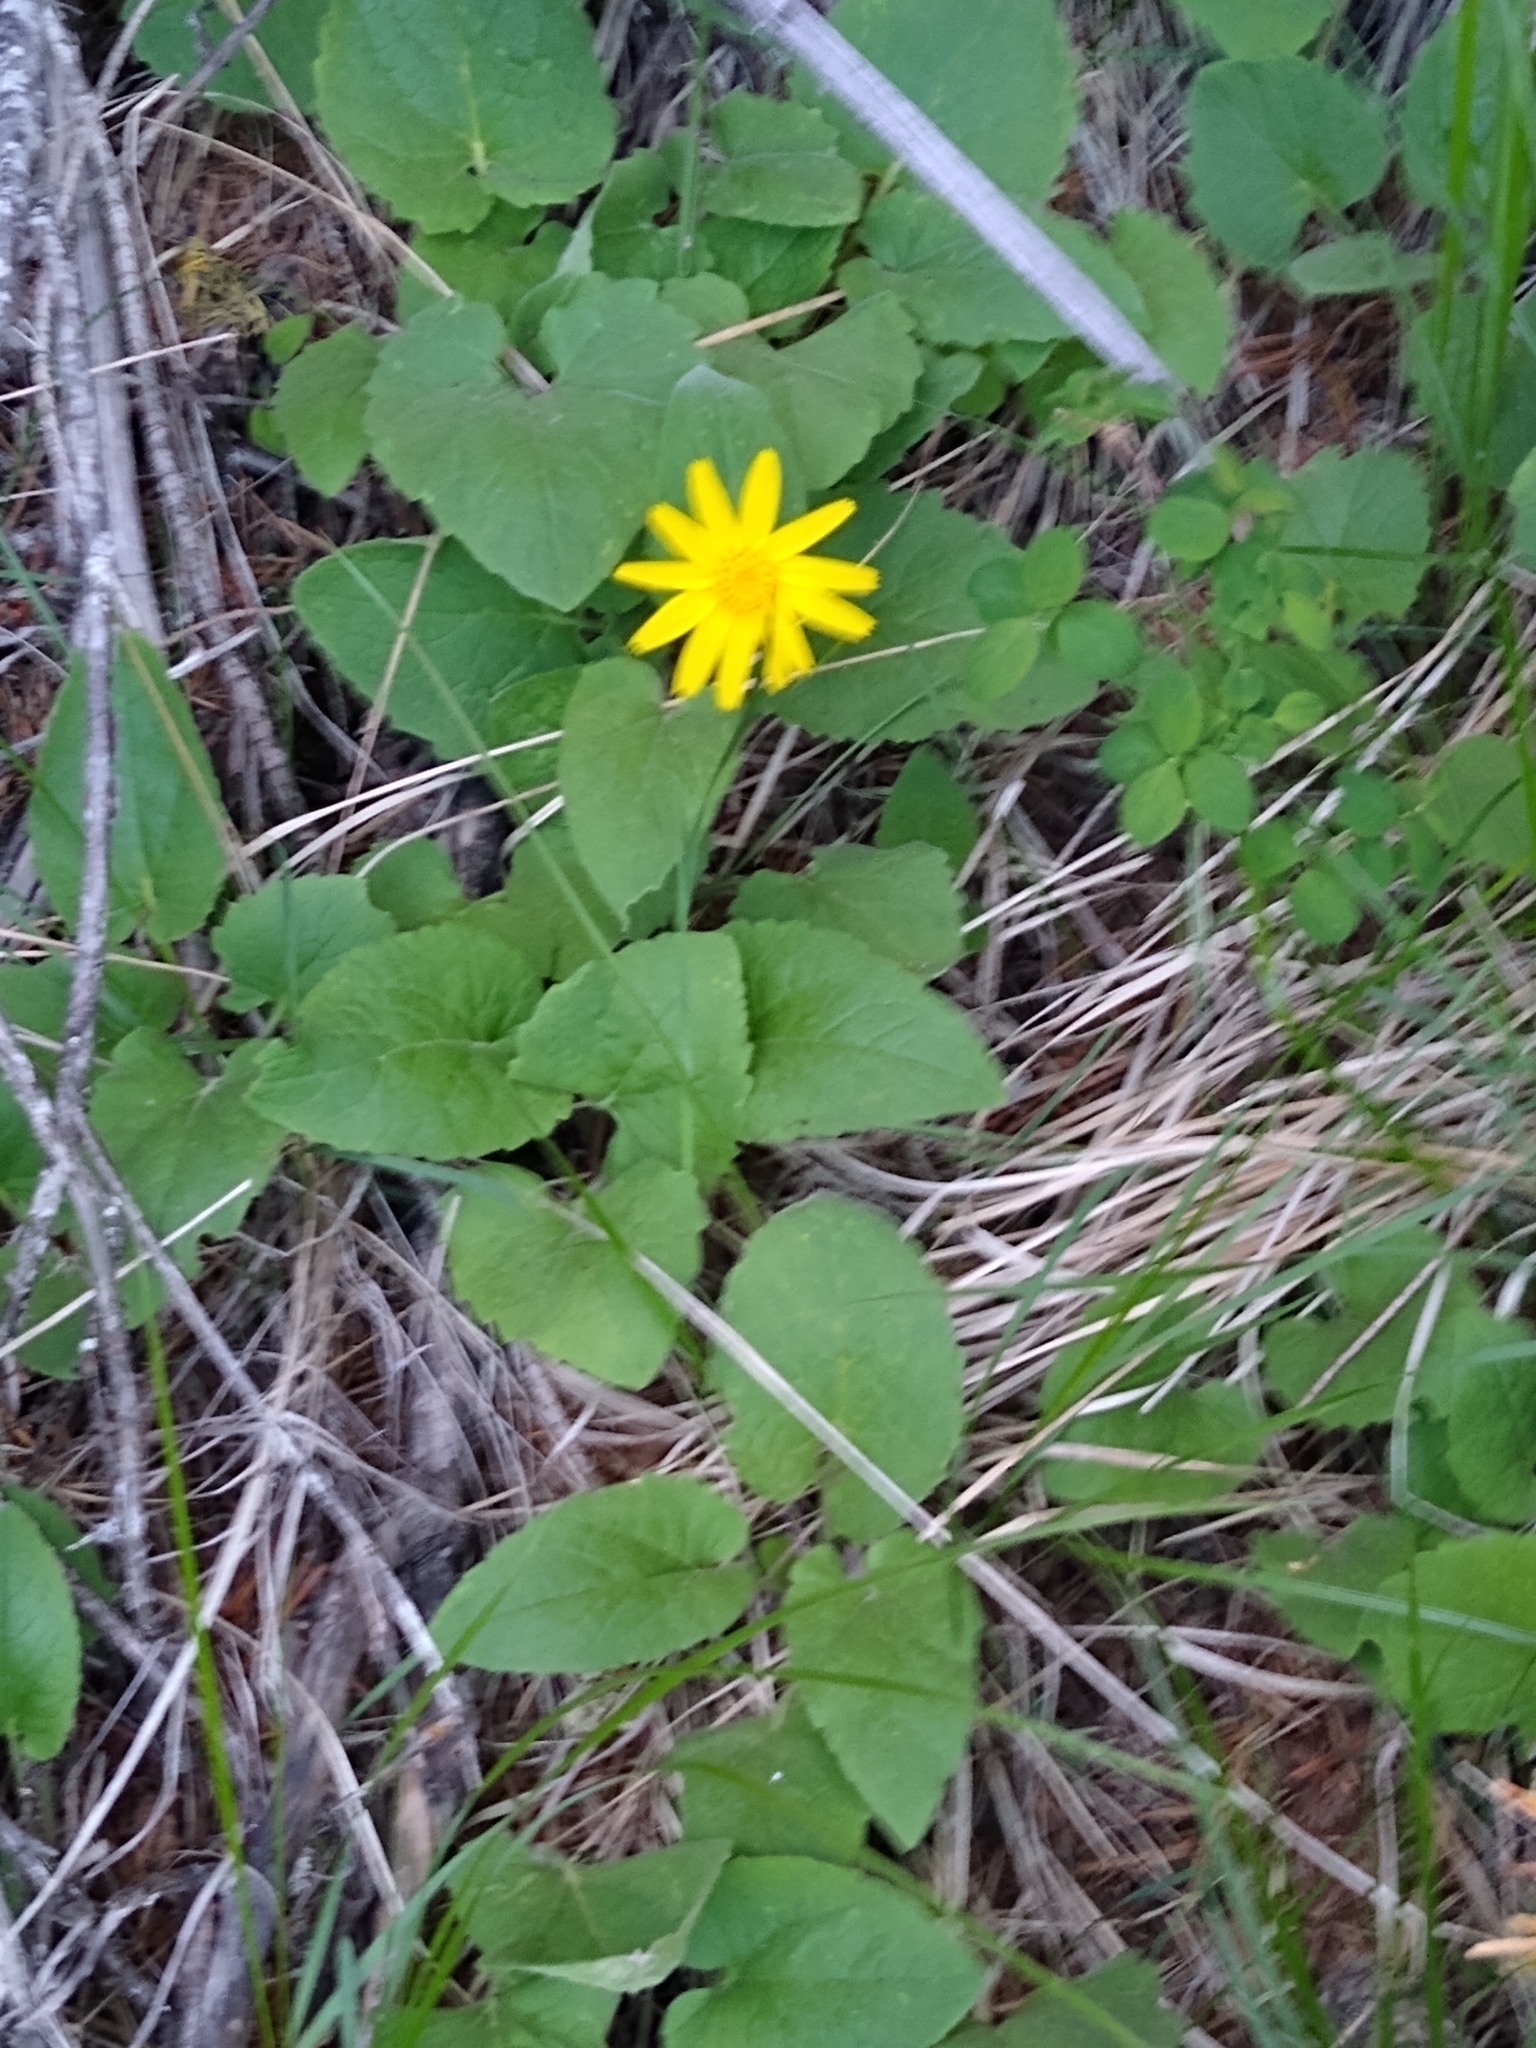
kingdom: Plantae
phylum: Tracheophyta
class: Magnoliopsida
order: Asterales
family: Asteraceae
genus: Arnica
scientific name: Arnica cordifolia
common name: Heart-leaf arnica
